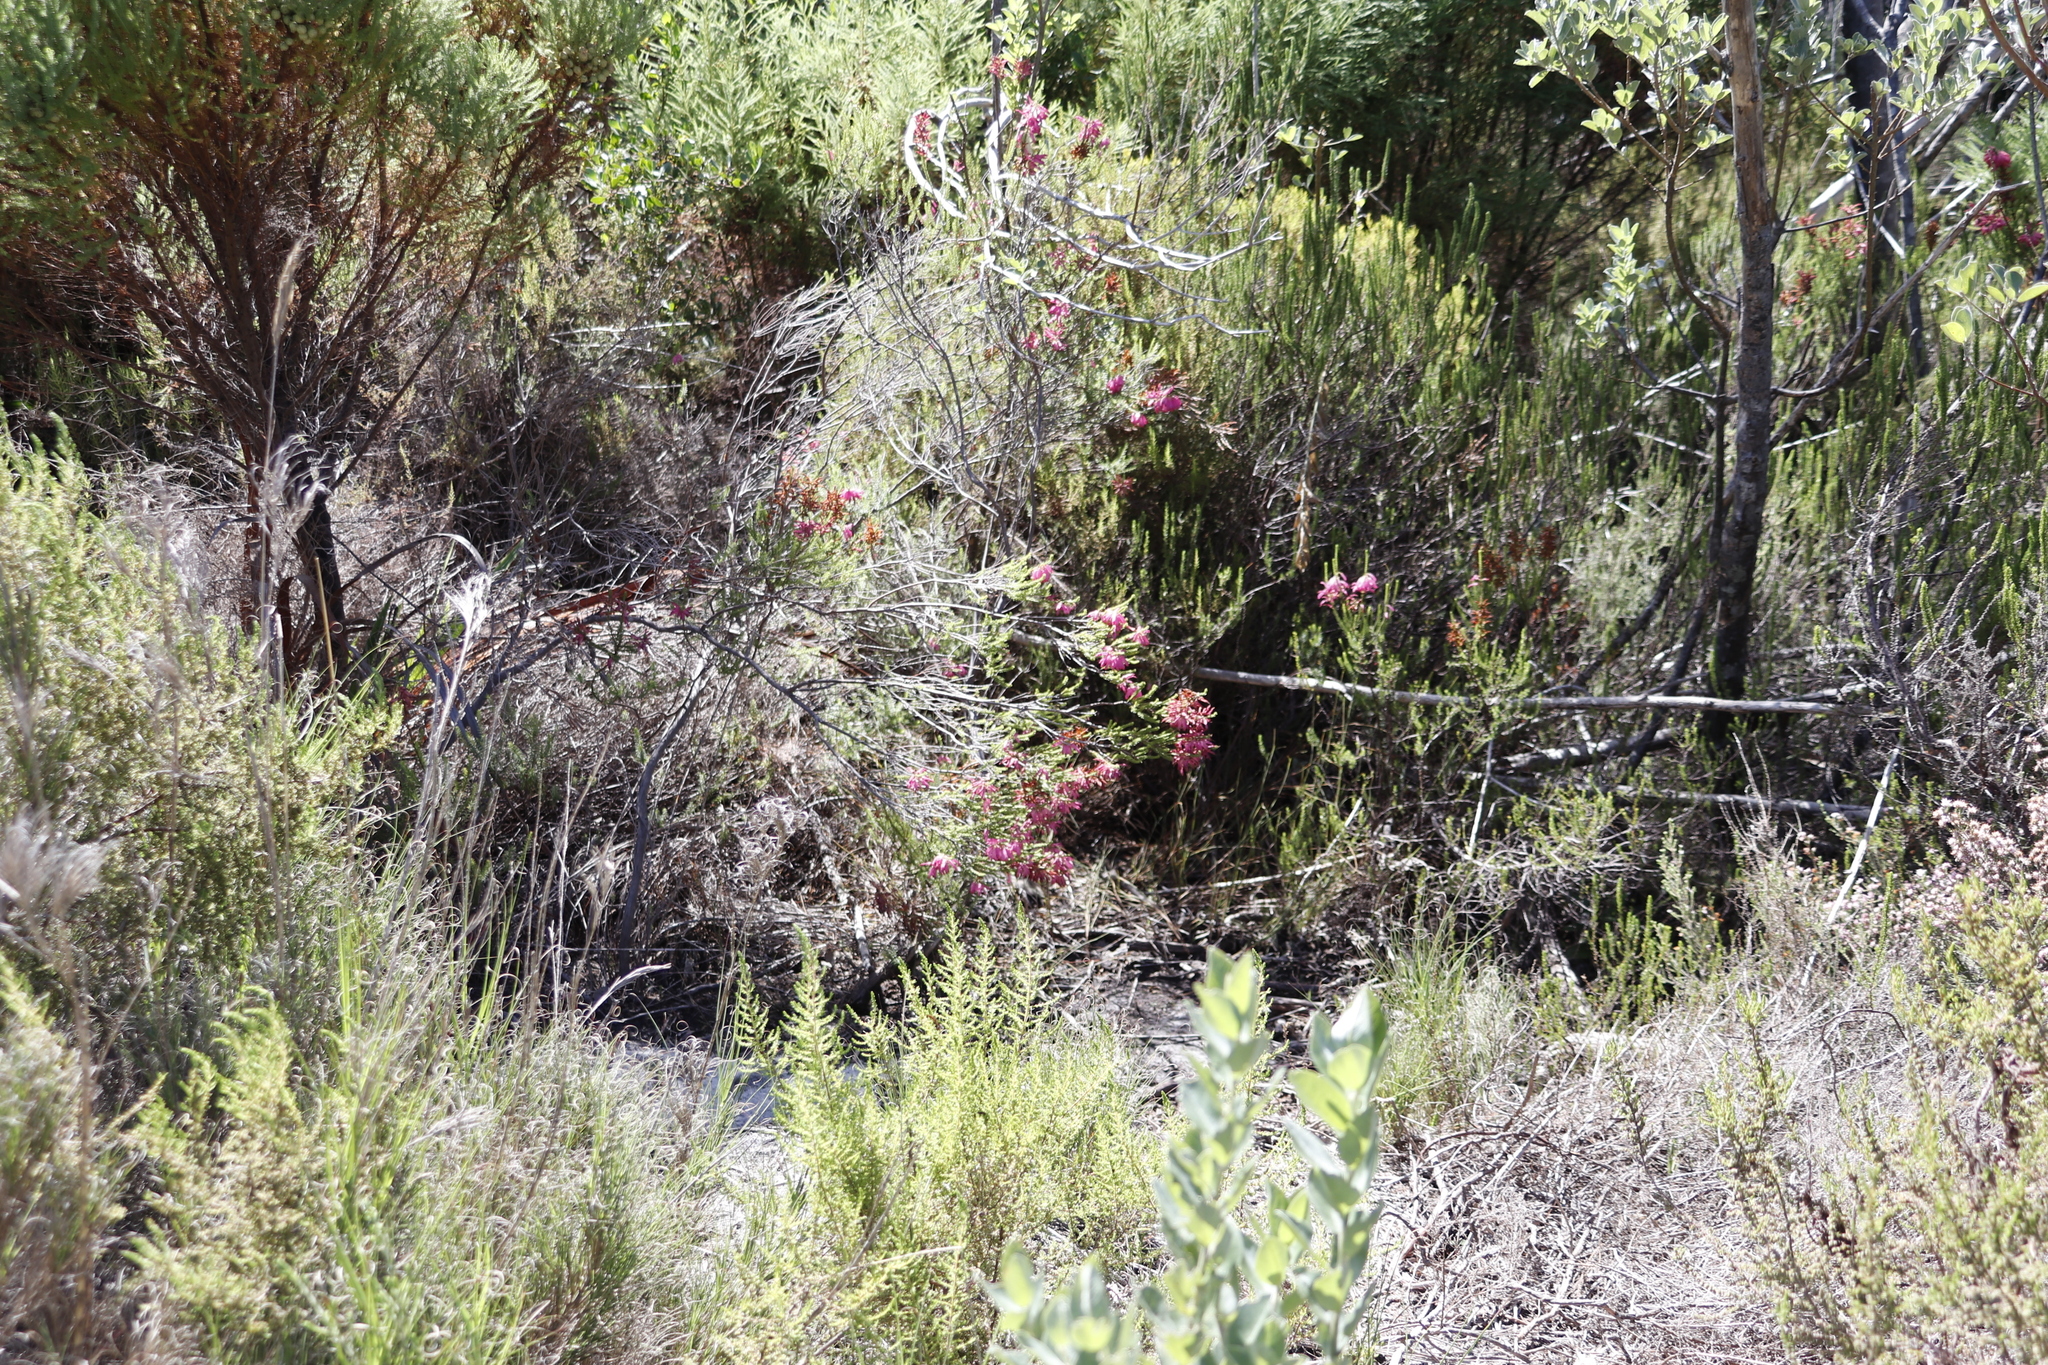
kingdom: Plantae
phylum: Tracheophyta
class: Magnoliopsida
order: Ericales
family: Ericaceae
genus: Erica
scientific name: Erica mammosa
